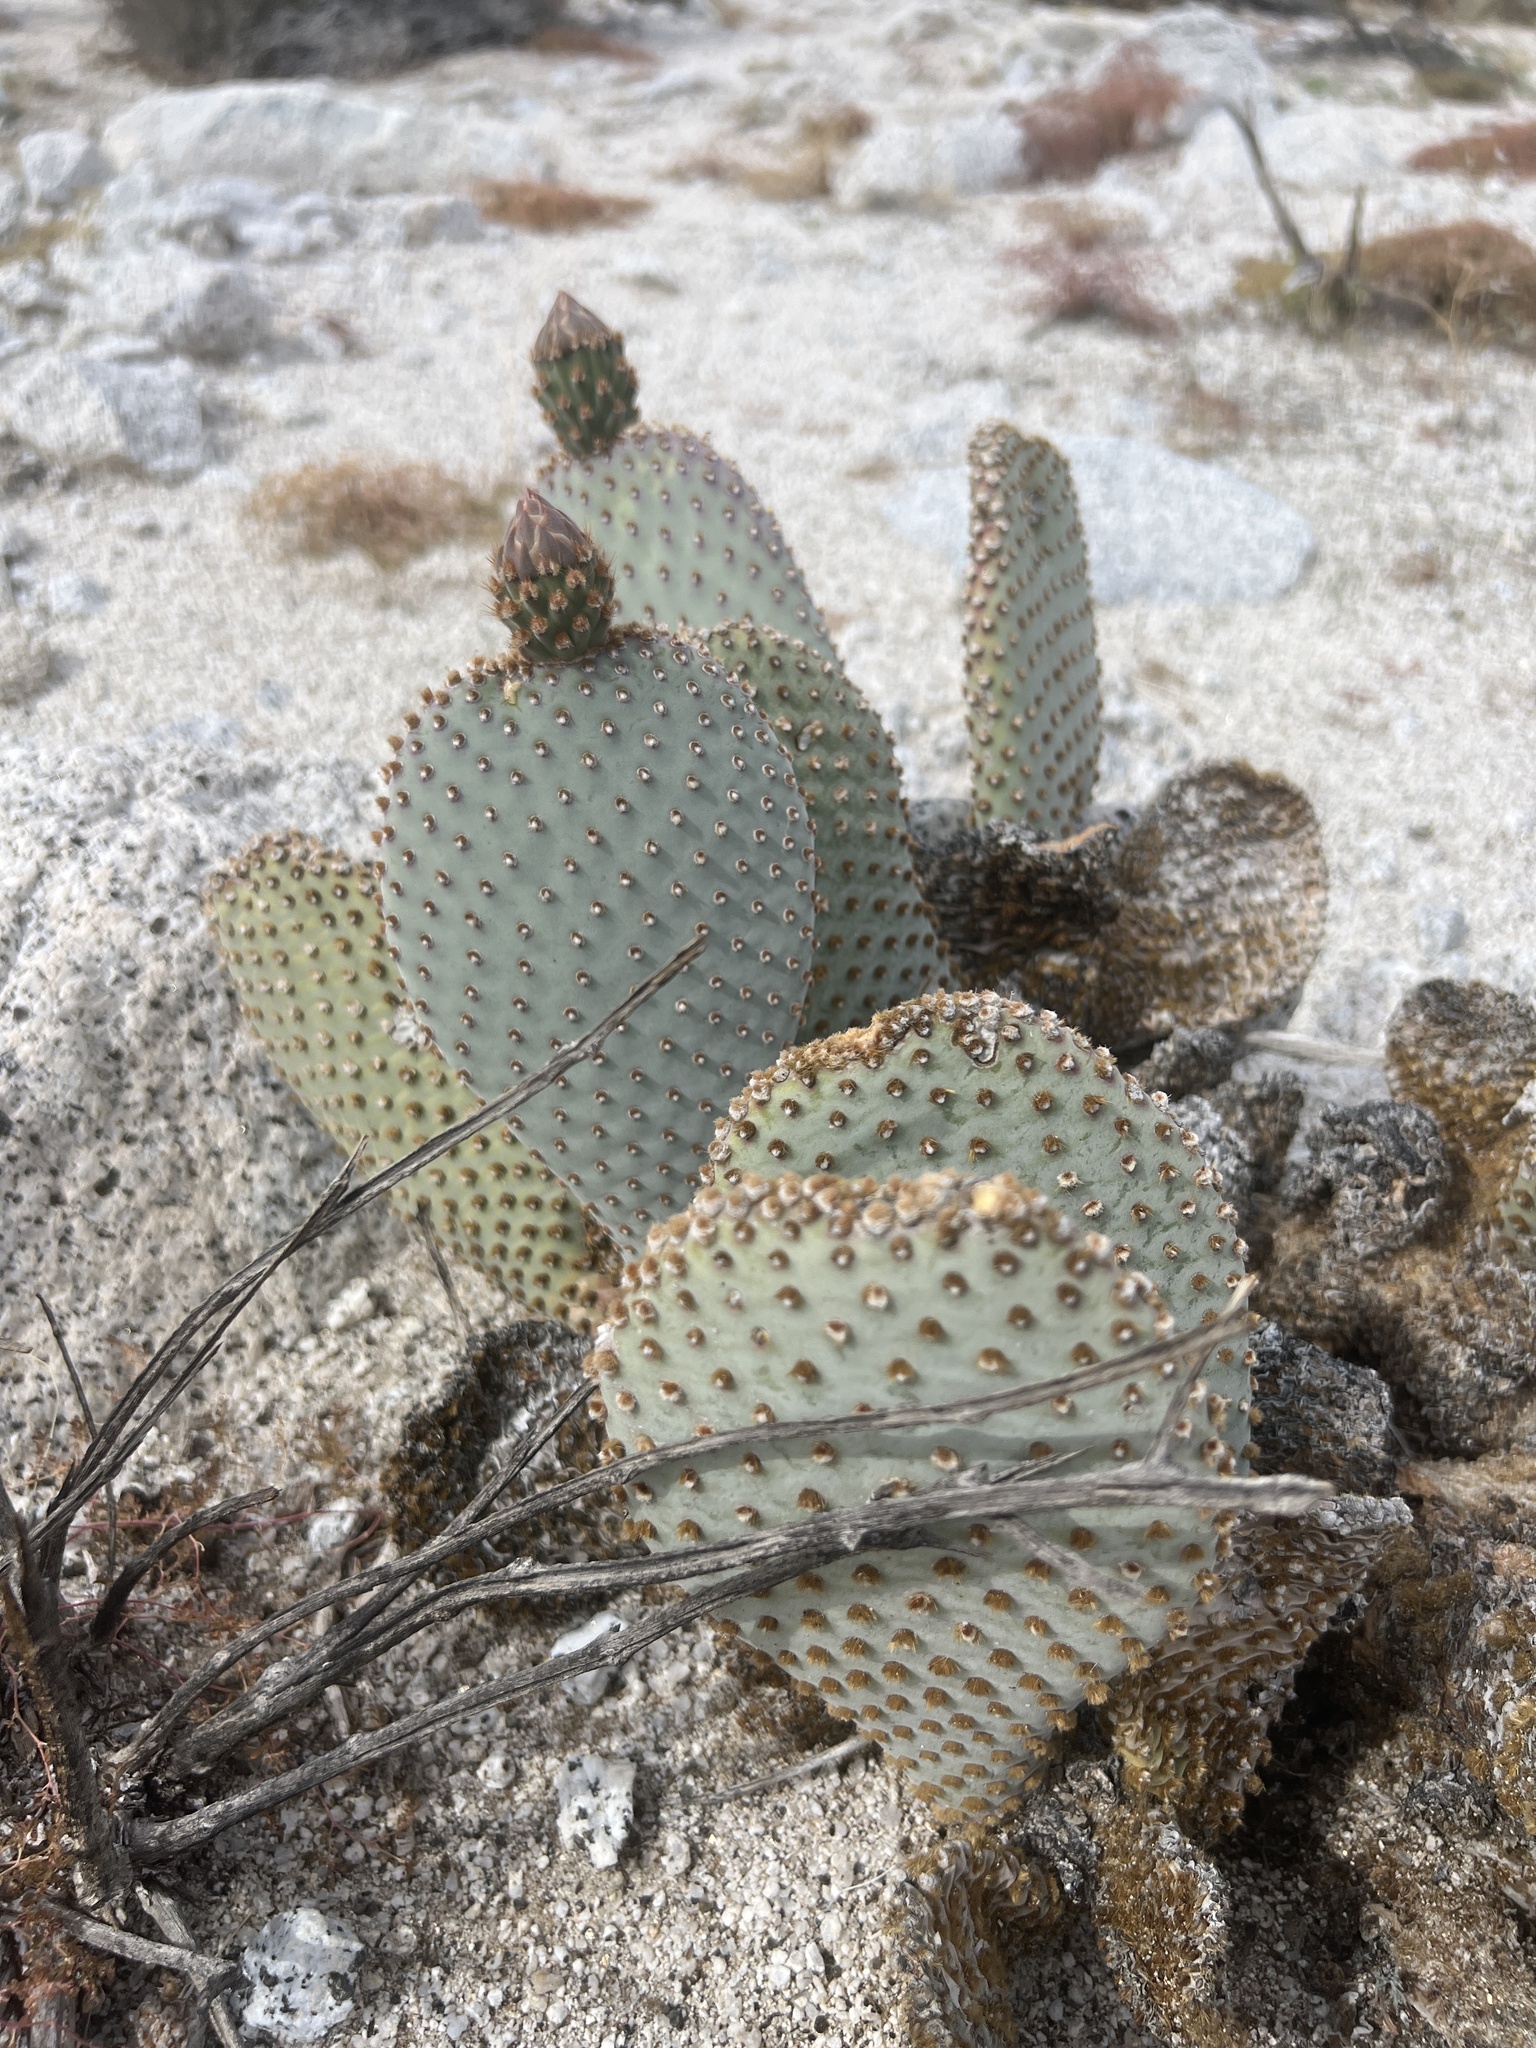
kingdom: Plantae
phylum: Tracheophyta
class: Magnoliopsida
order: Caryophyllales
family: Cactaceae
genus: Opuntia
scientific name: Opuntia basilaris
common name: Beavertail prickly-pear
